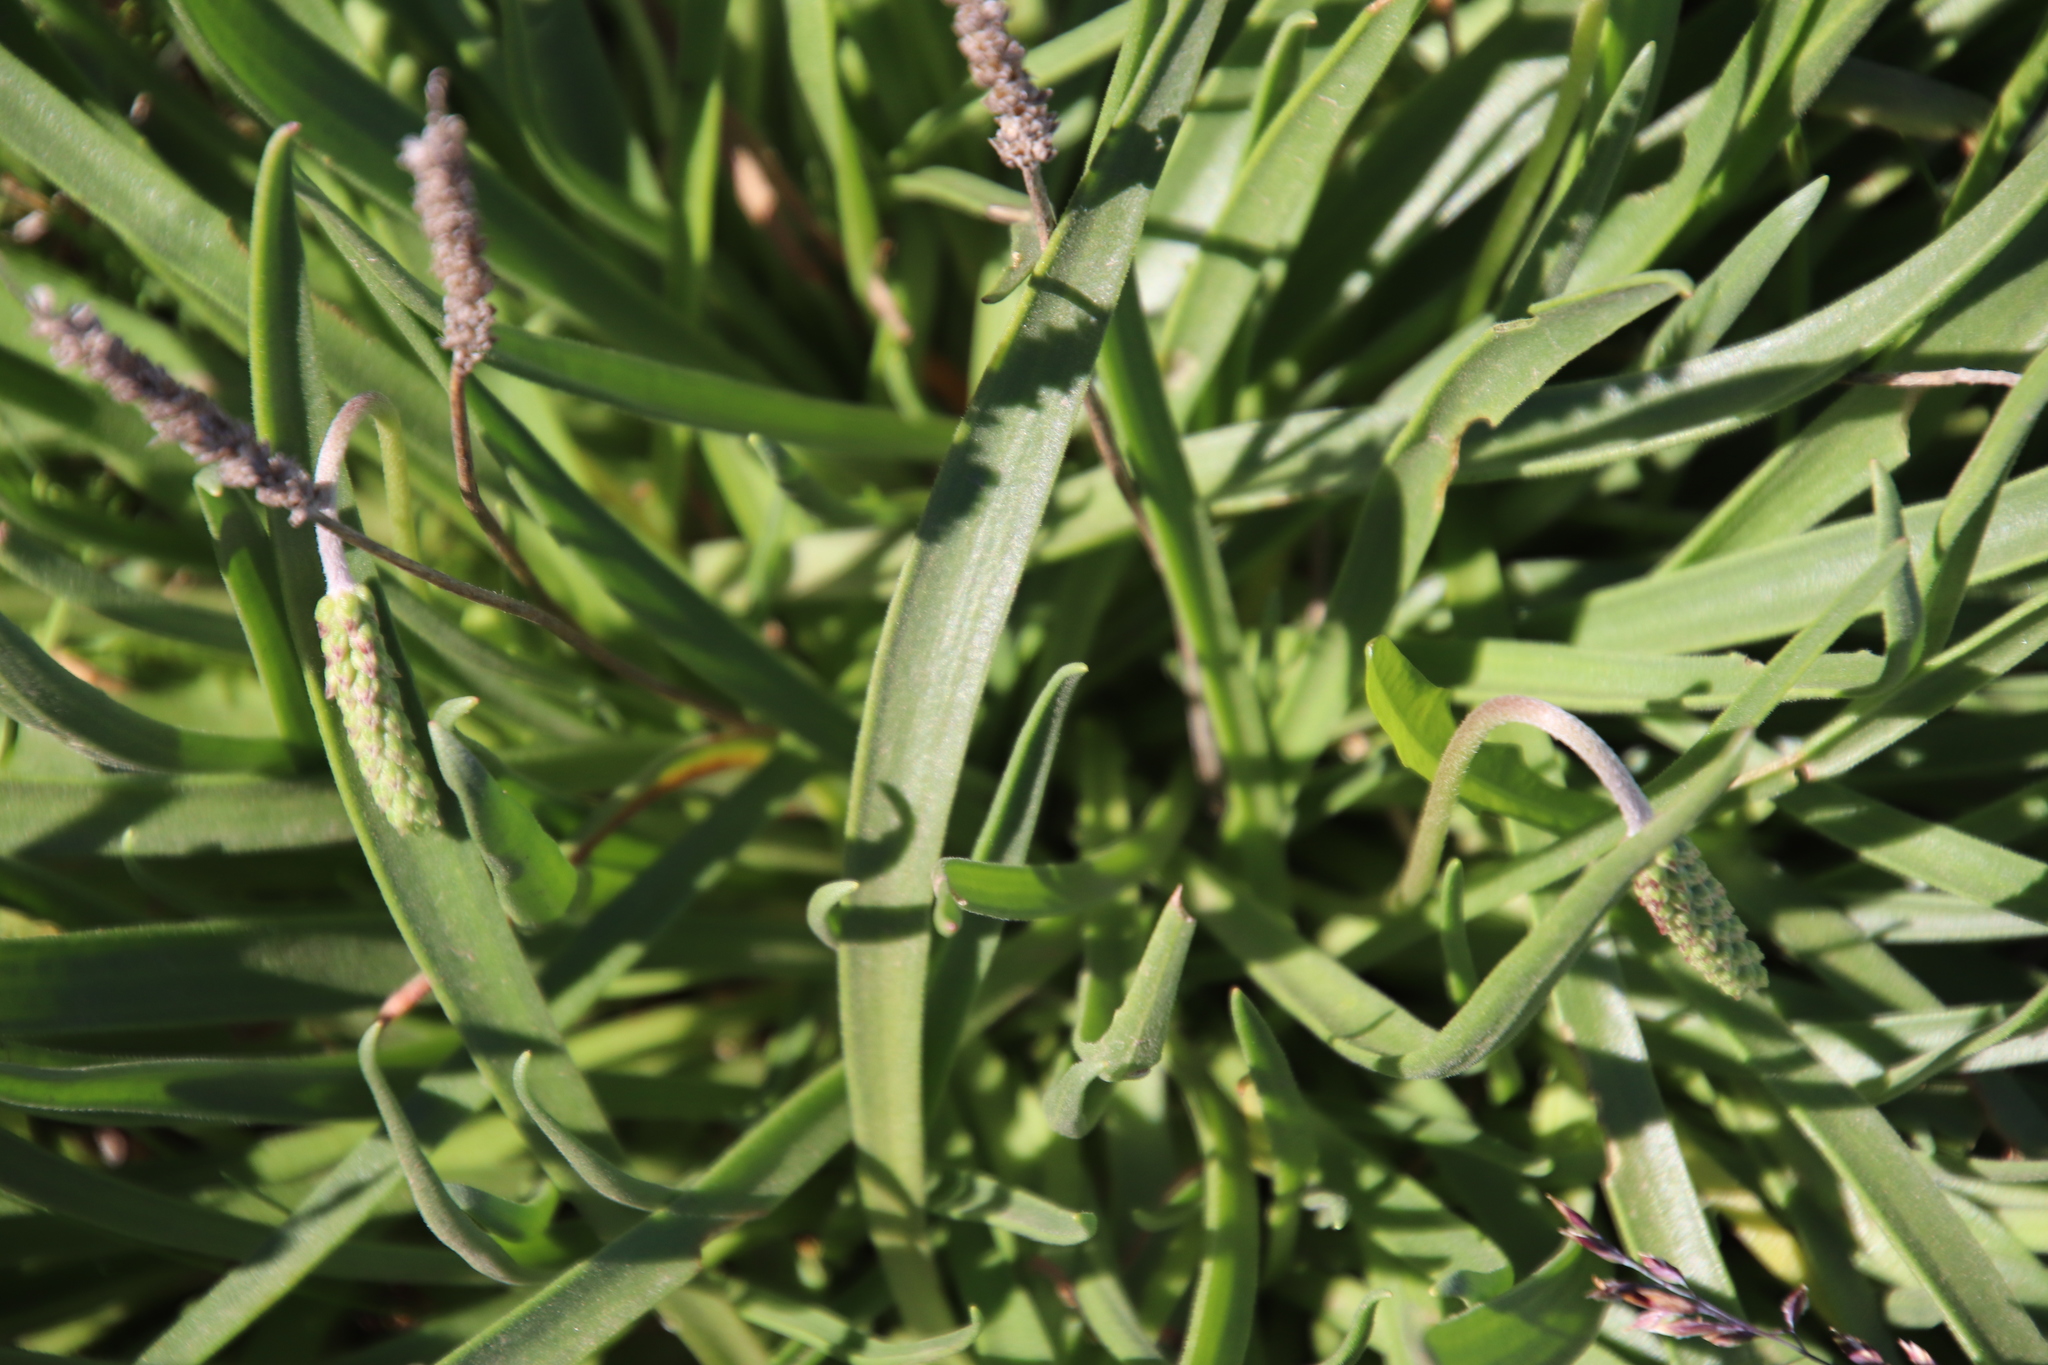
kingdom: Plantae
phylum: Tracheophyta
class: Magnoliopsida
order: Lamiales
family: Plantaginaceae
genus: Plantago
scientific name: Plantago maritima
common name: Sea plantain
